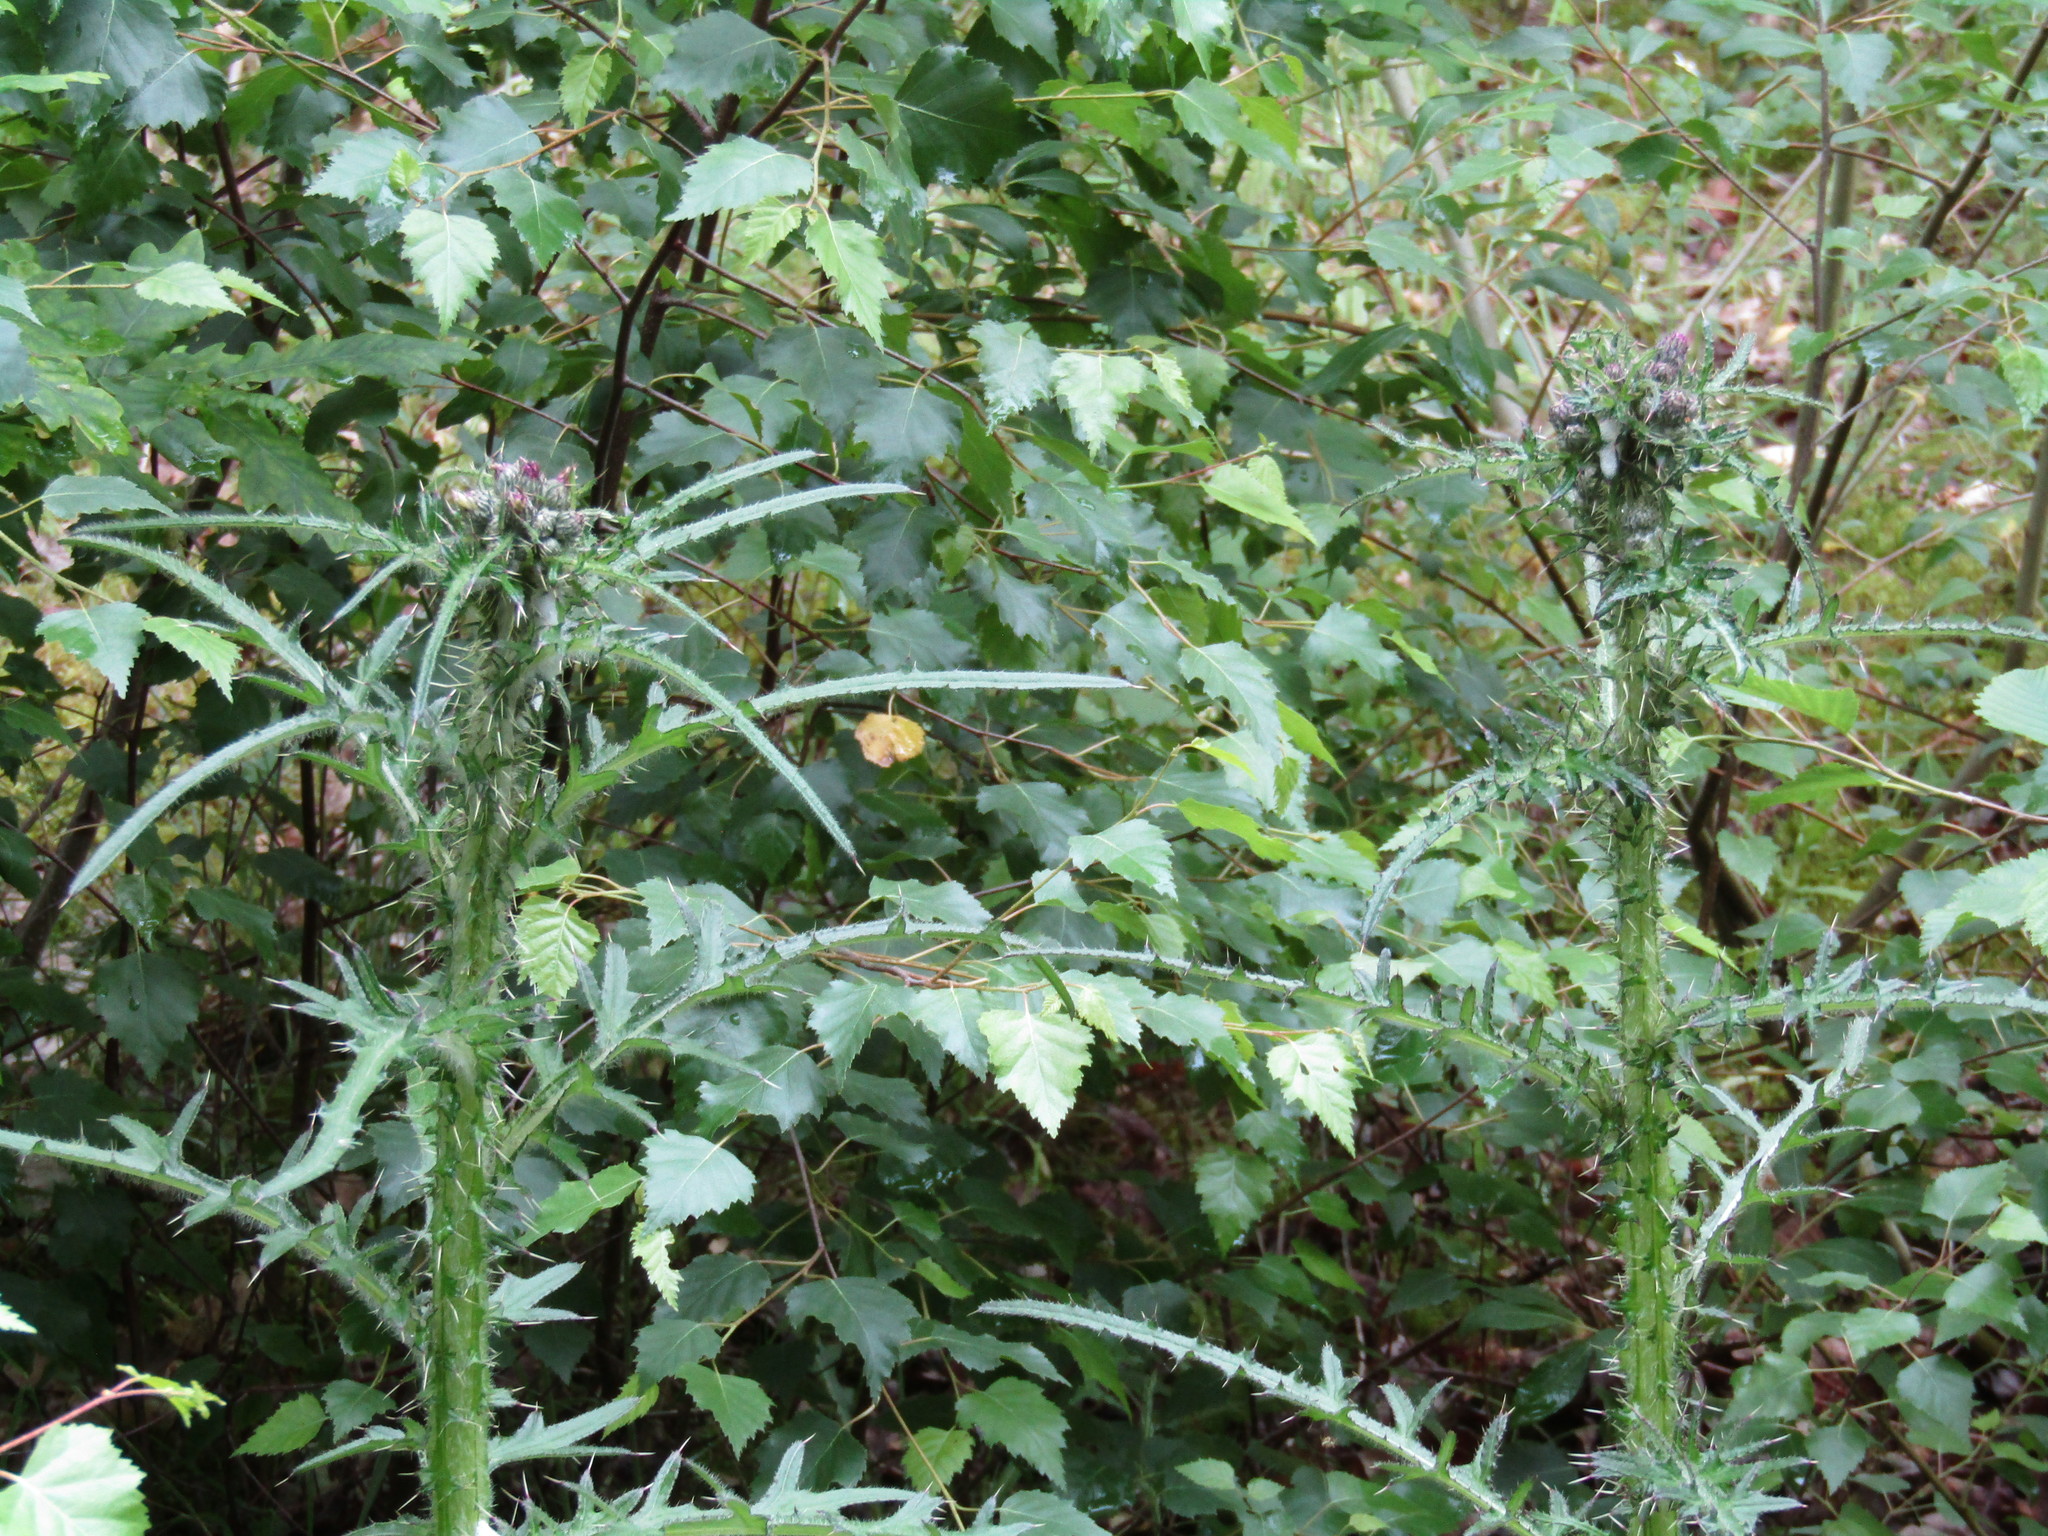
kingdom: Plantae
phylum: Tracheophyta
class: Magnoliopsida
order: Asterales
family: Asteraceae
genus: Cirsium
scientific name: Cirsium palustre
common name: Marsh thistle
